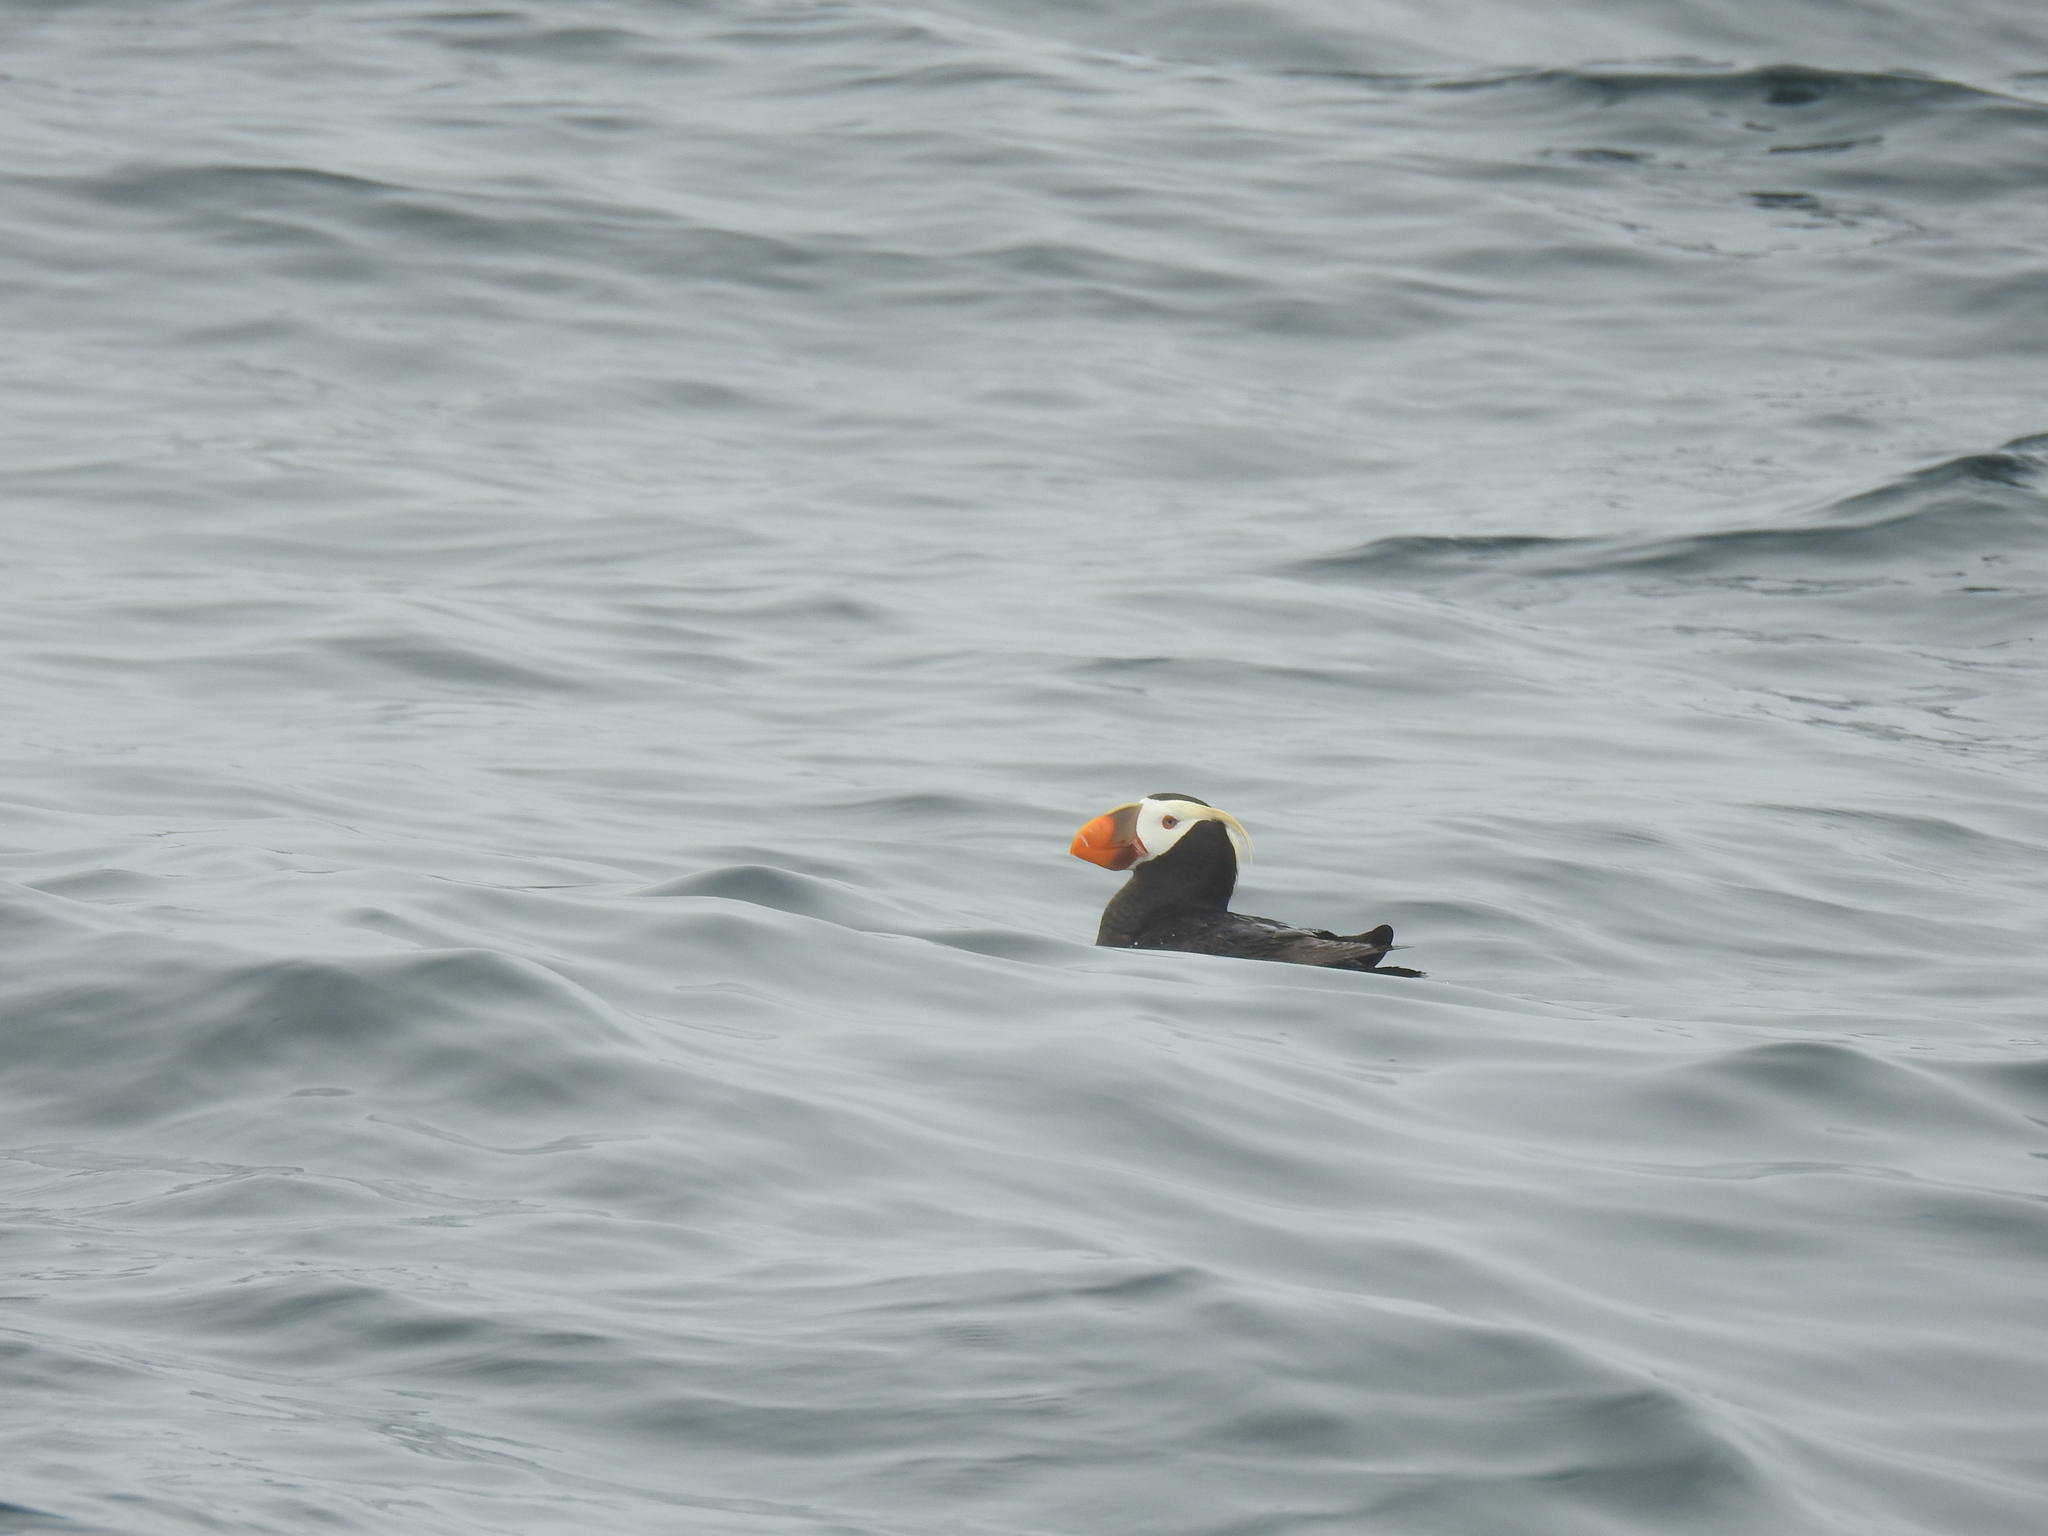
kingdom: Animalia
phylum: Chordata
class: Aves
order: Charadriiformes
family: Alcidae
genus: Fratercula
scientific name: Fratercula cirrhata
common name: Tufted puffin
